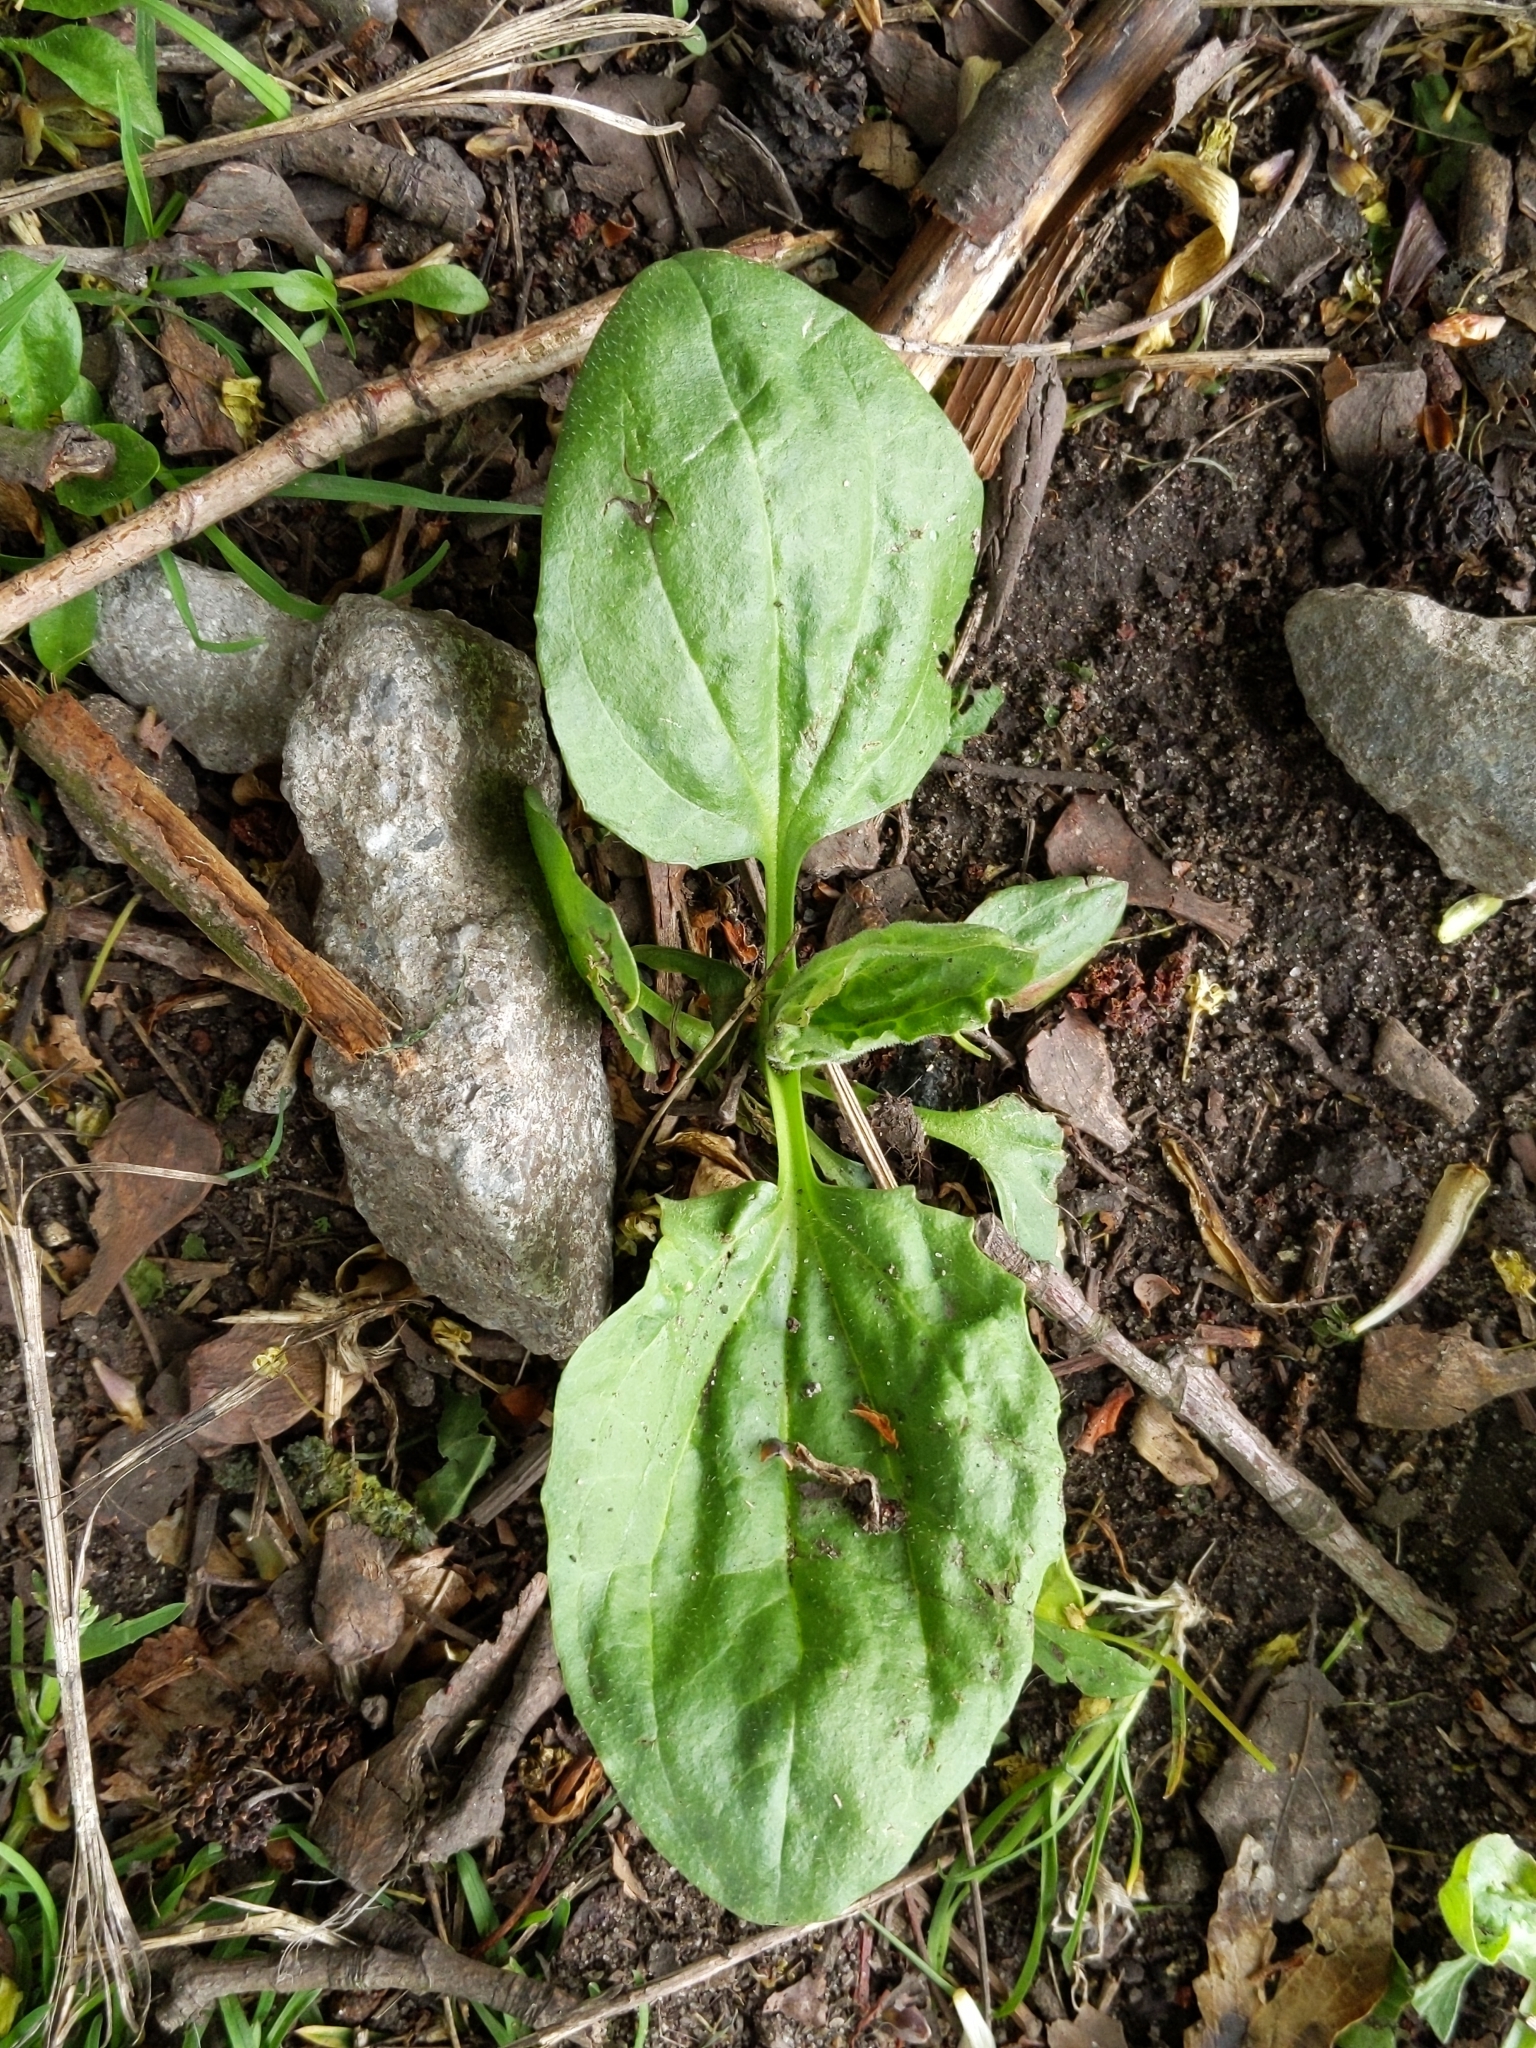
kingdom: Plantae
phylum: Tracheophyta
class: Magnoliopsida
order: Lamiales
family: Plantaginaceae
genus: Plantago
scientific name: Plantago major
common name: Common plantain
